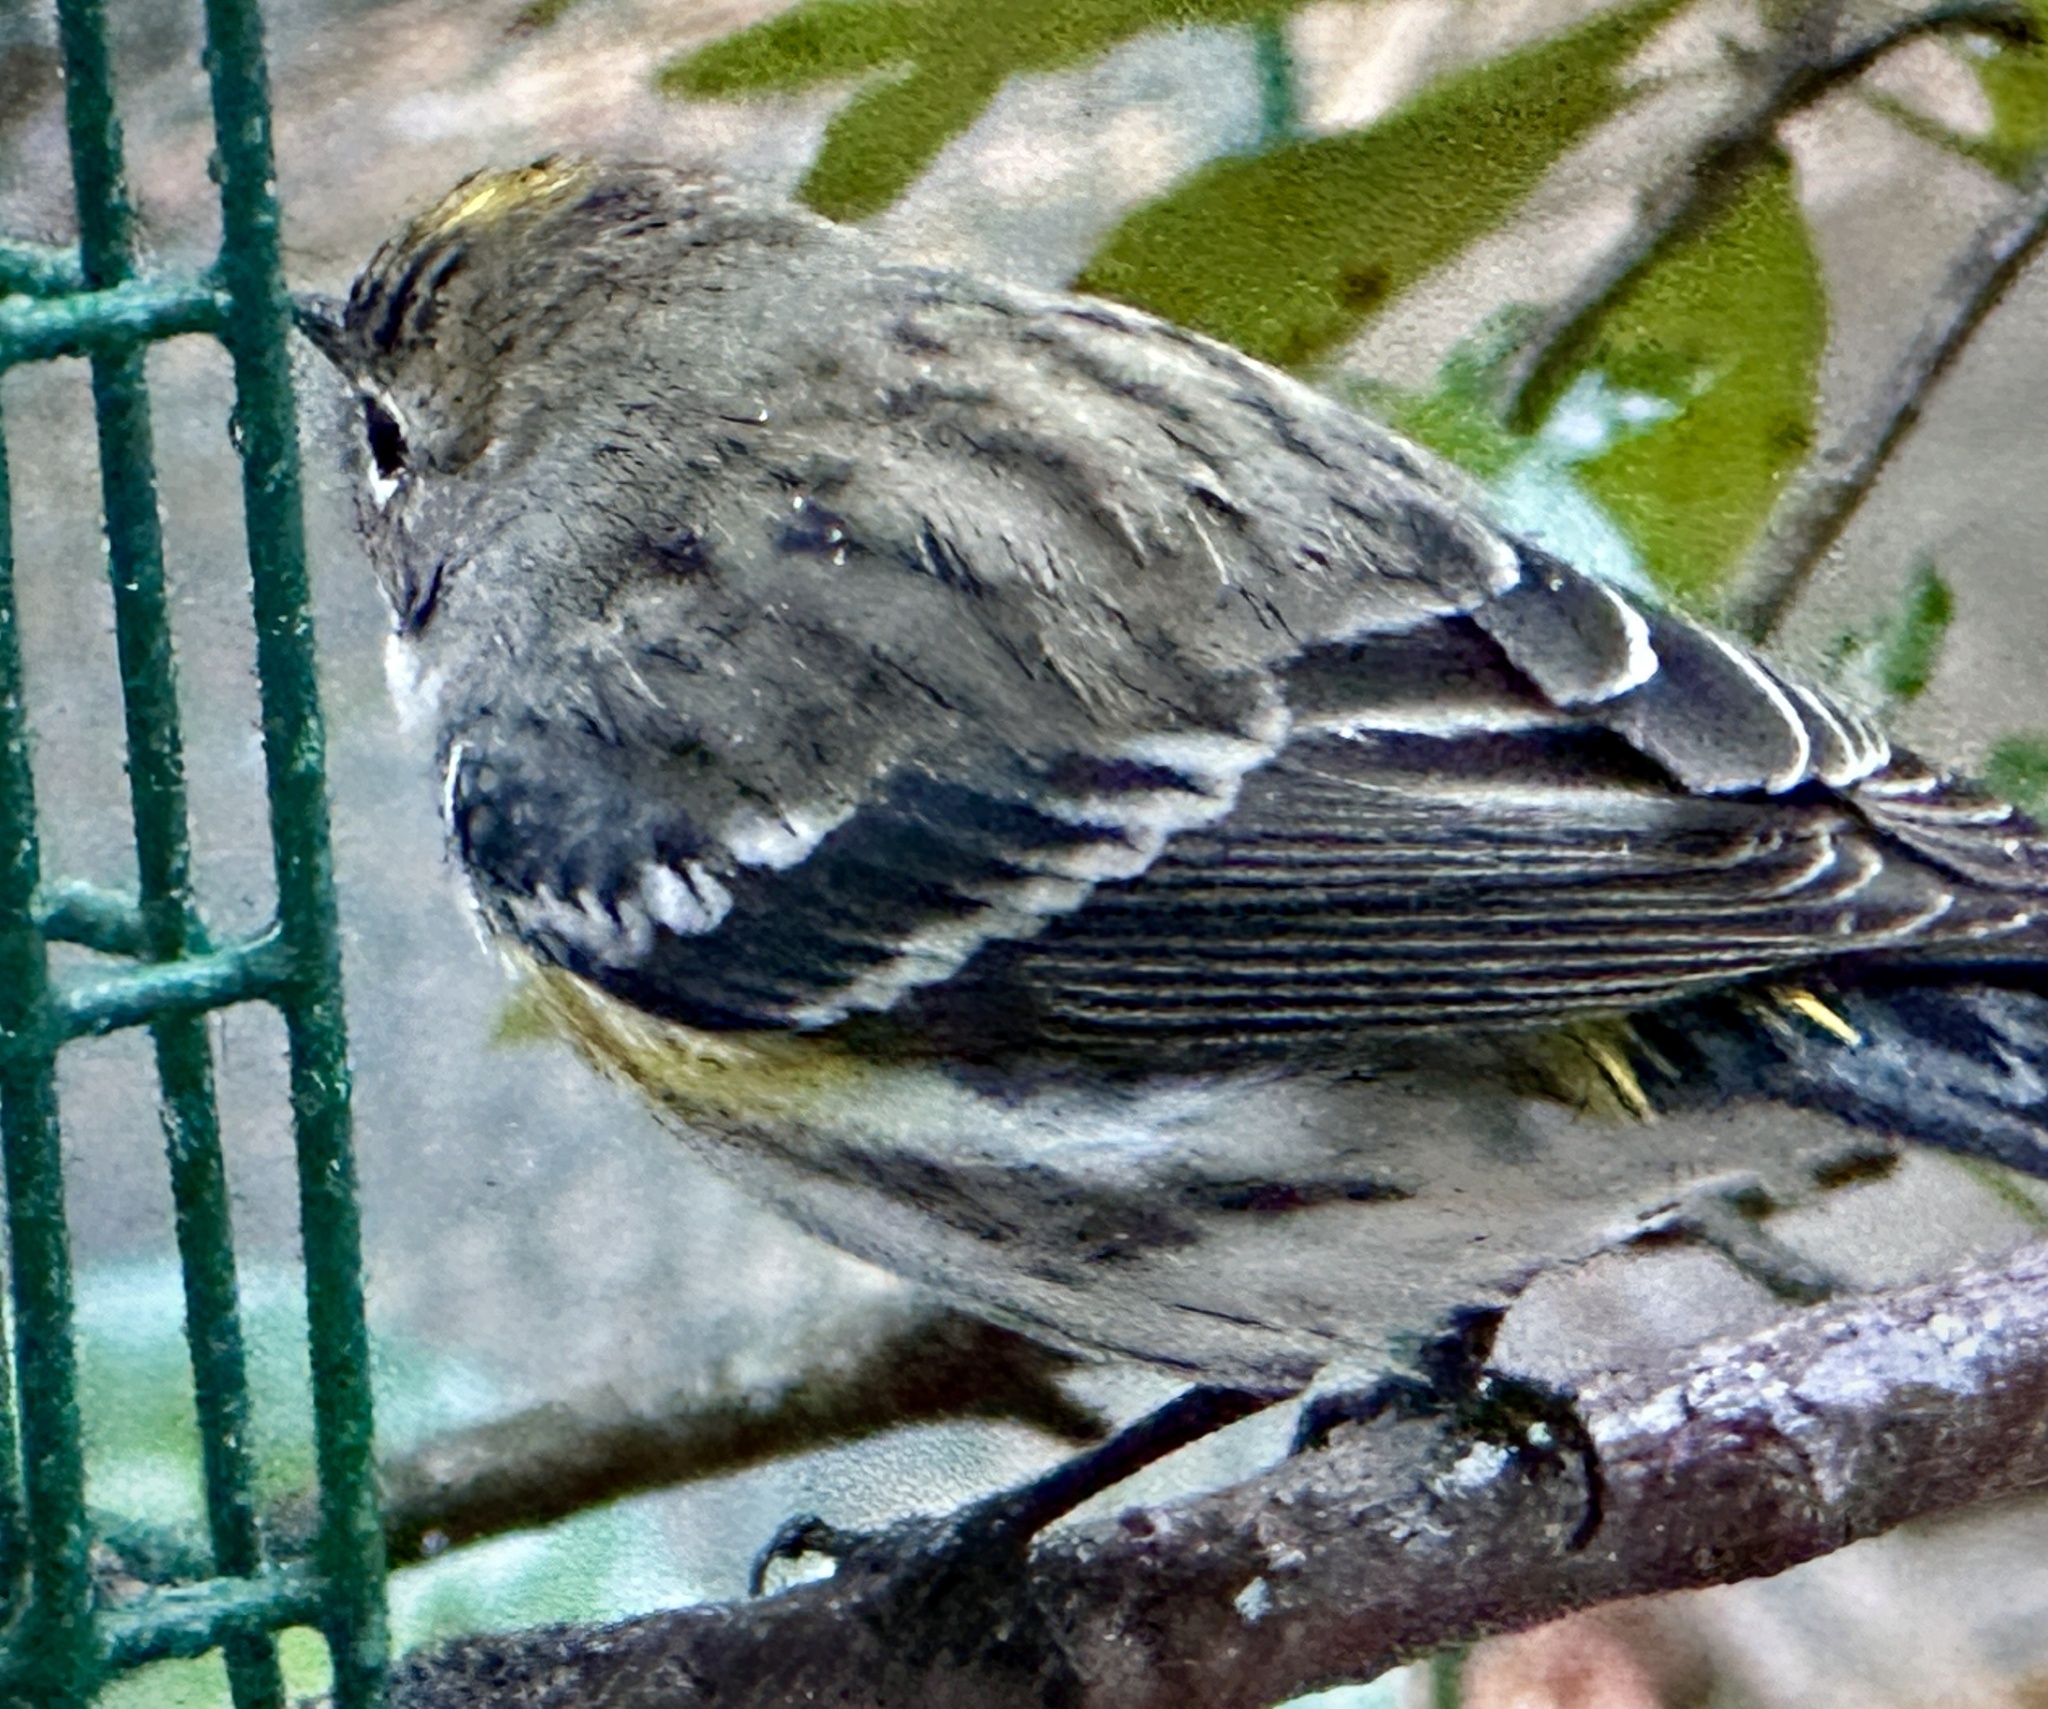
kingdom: Animalia
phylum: Chordata
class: Aves
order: Passeriformes
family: Parulidae
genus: Setophaga
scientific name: Setophaga coronata
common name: Myrtle warbler
